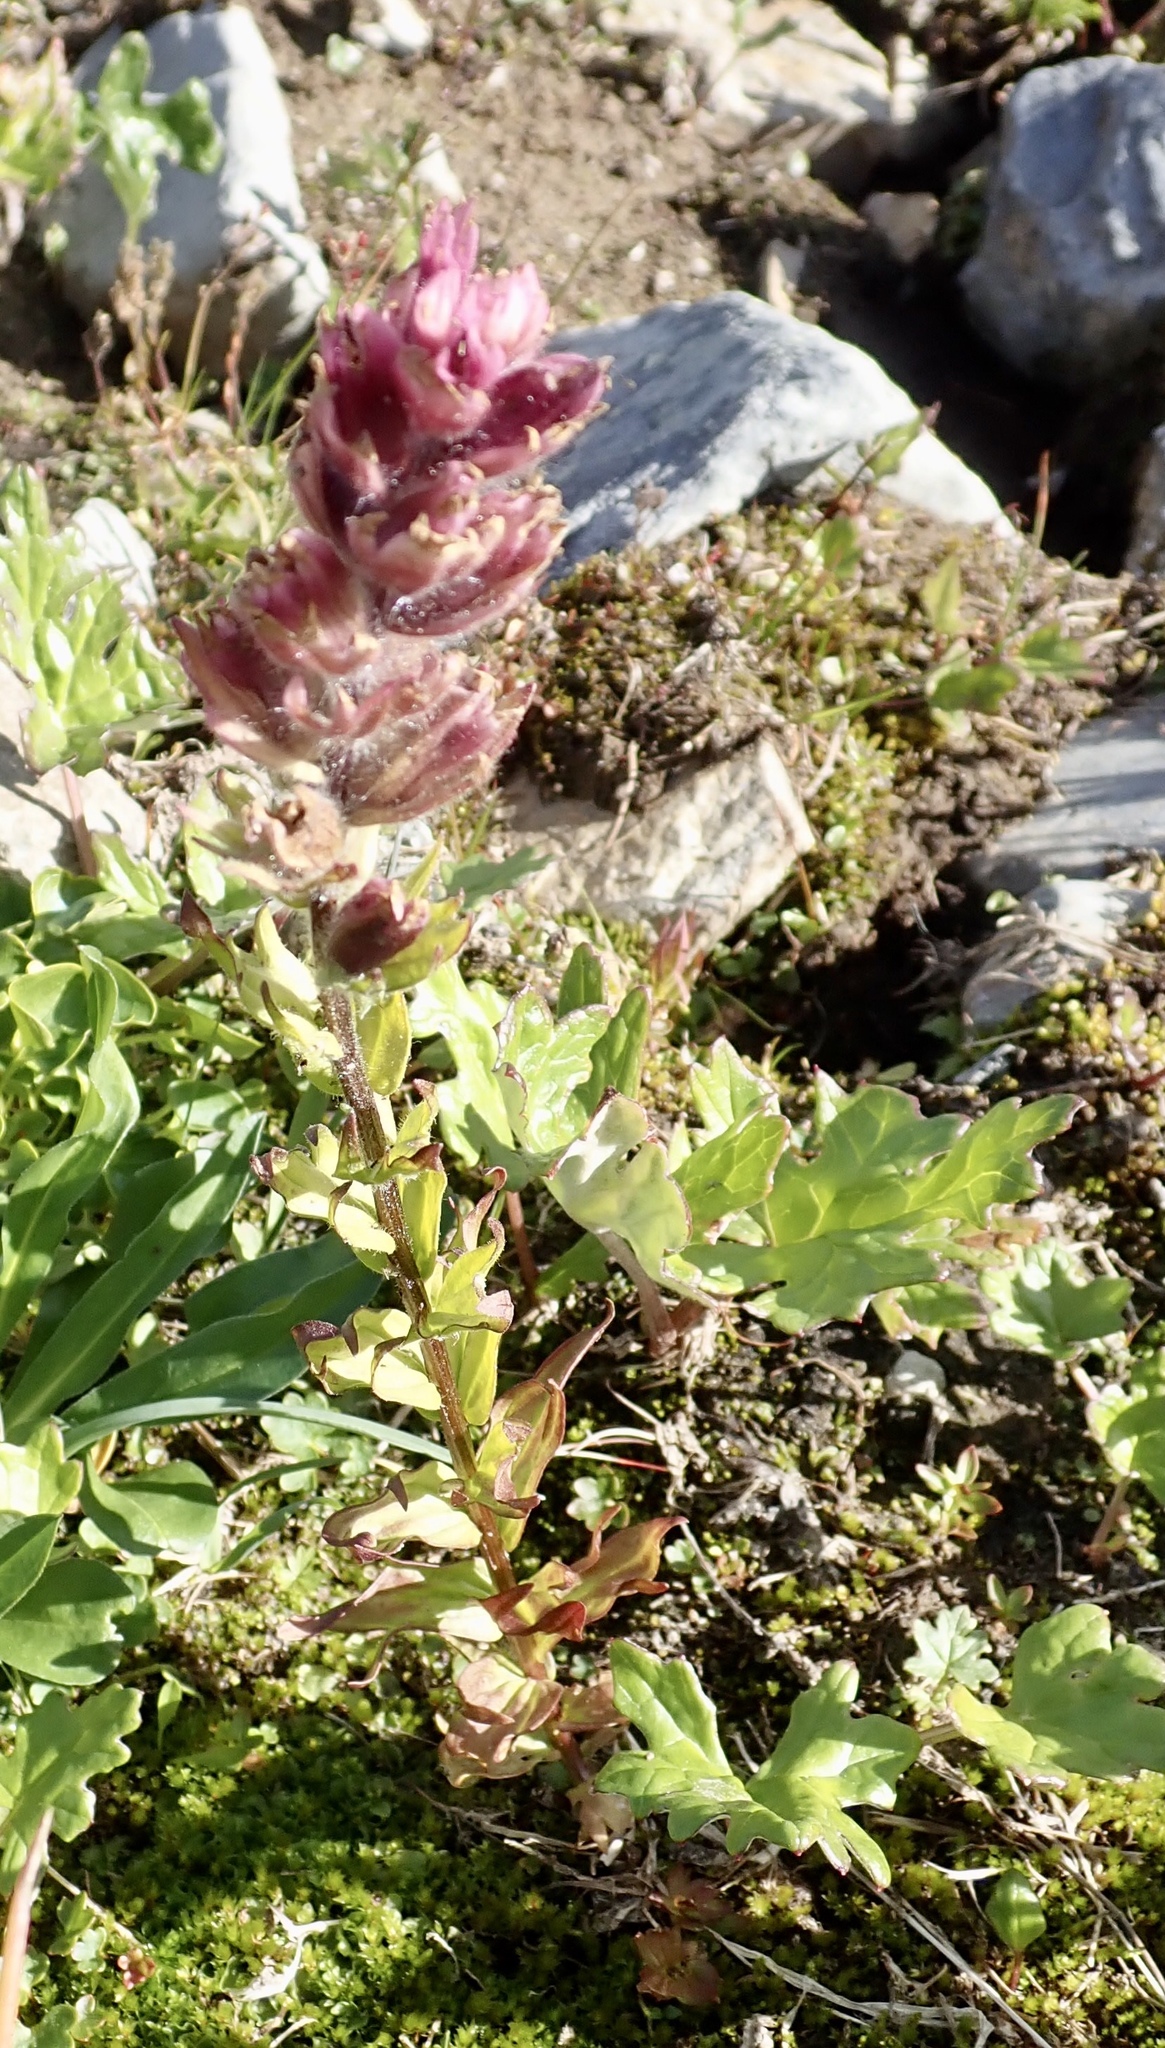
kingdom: Plantae
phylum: Tracheophyta
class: Magnoliopsida
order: Lamiales
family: Orobanchaceae
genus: Castilleja
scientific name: Castilleja parviflora
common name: Mountain paintbrush
